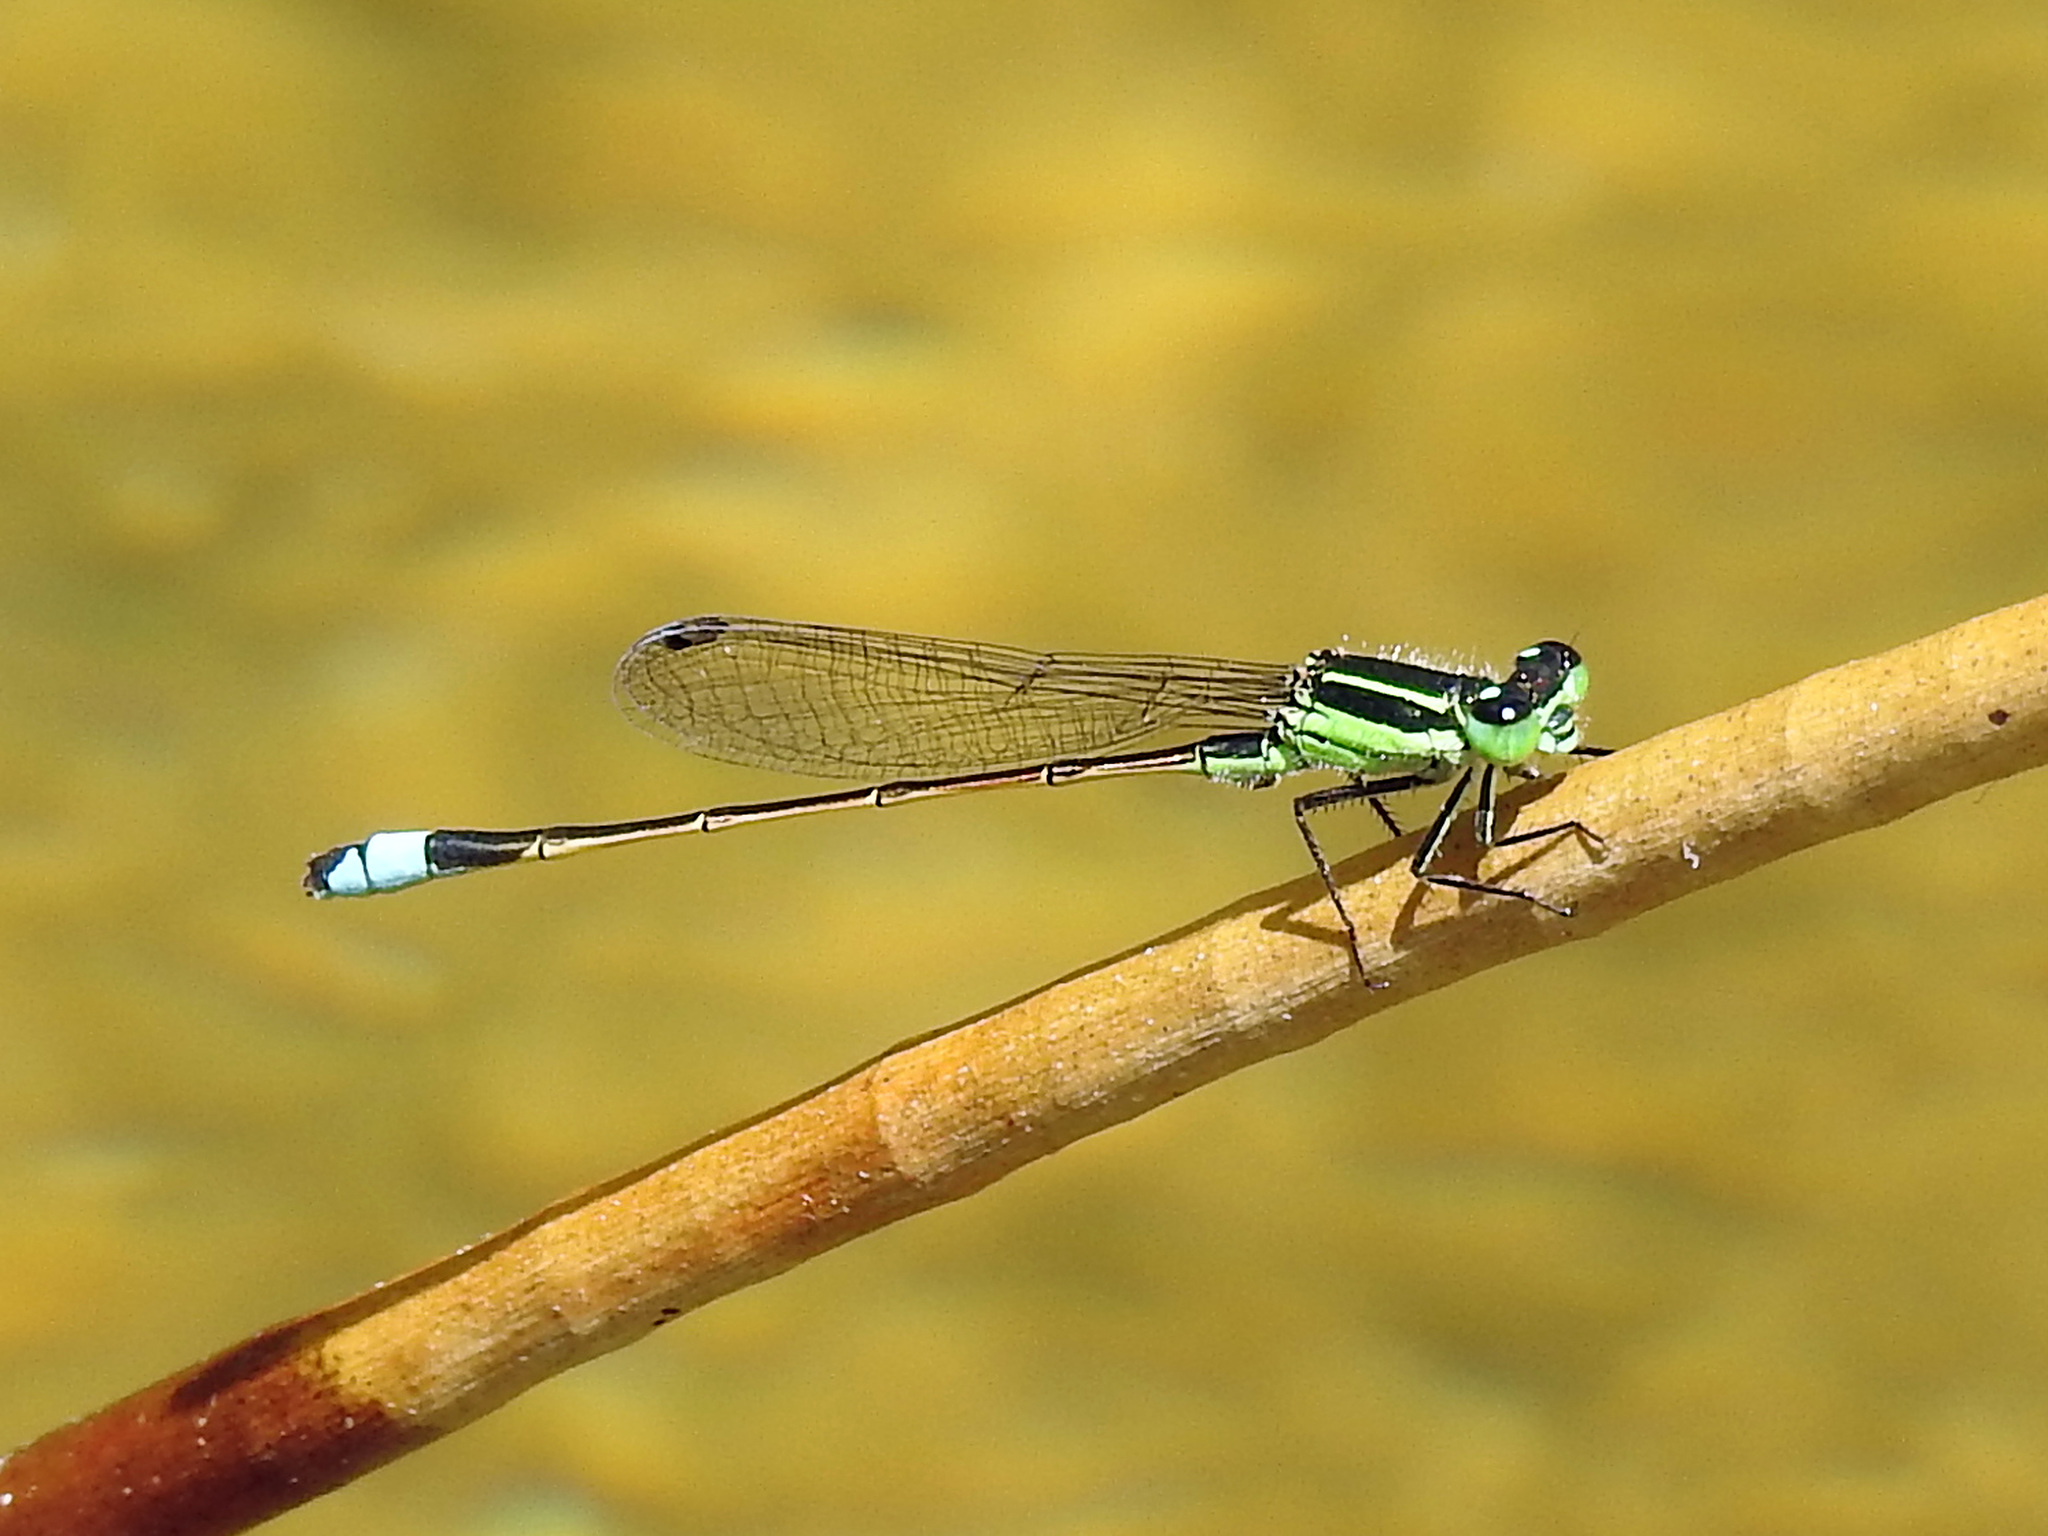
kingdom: Animalia
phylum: Arthropoda
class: Insecta
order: Odonata
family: Coenagrionidae
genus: Ischnura
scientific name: Ischnura ramburii
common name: Rambur's forktail
